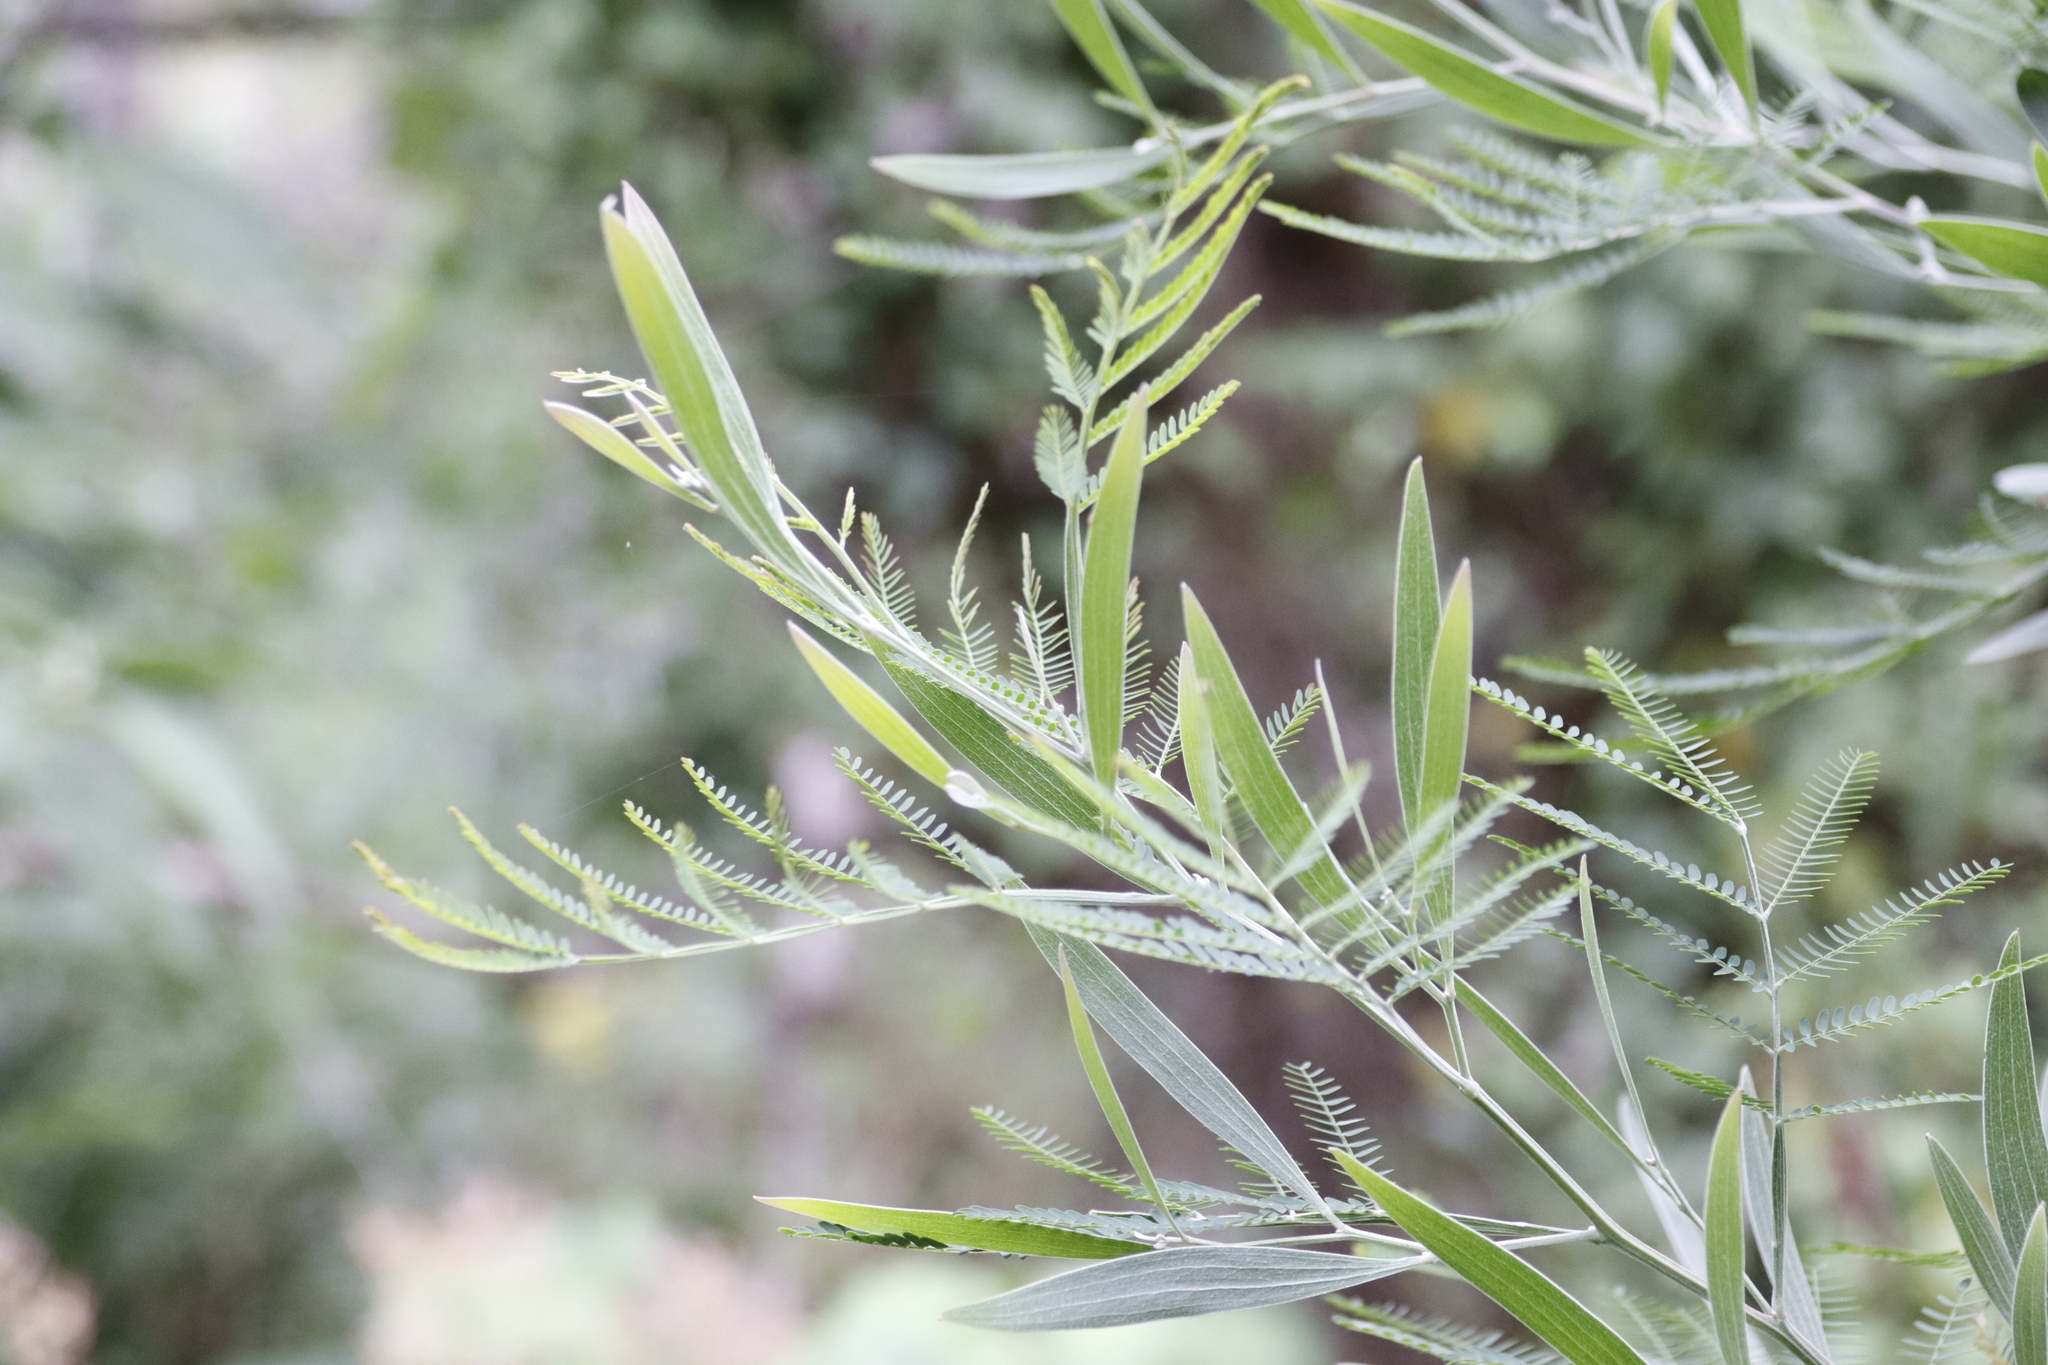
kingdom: Plantae
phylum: Tracheophyta
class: Magnoliopsida
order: Fabales
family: Fabaceae
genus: Acacia
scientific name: Acacia melanoxylon
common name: Blackwood
